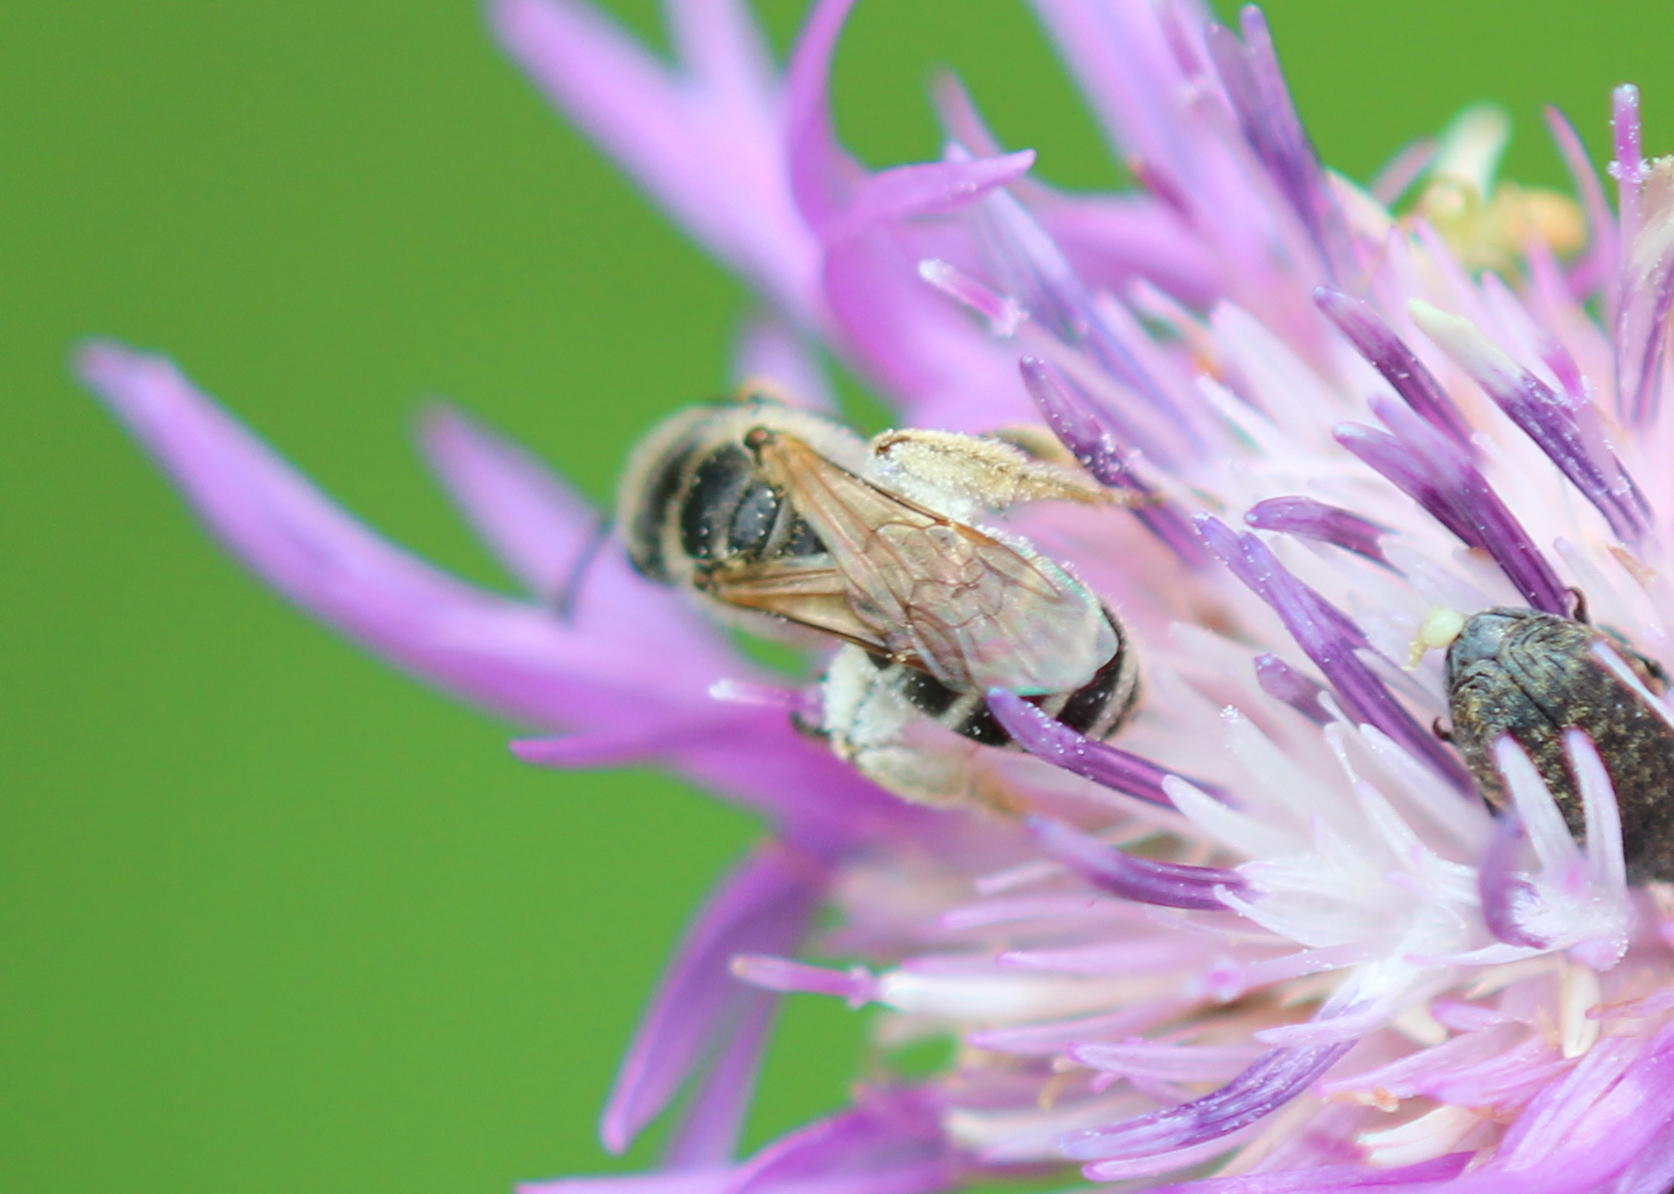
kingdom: Animalia
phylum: Arthropoda
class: Insecta
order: Hymenoptera
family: Halictidae
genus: Halictus
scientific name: Halictus ligatus
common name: Ligated furrow bee
